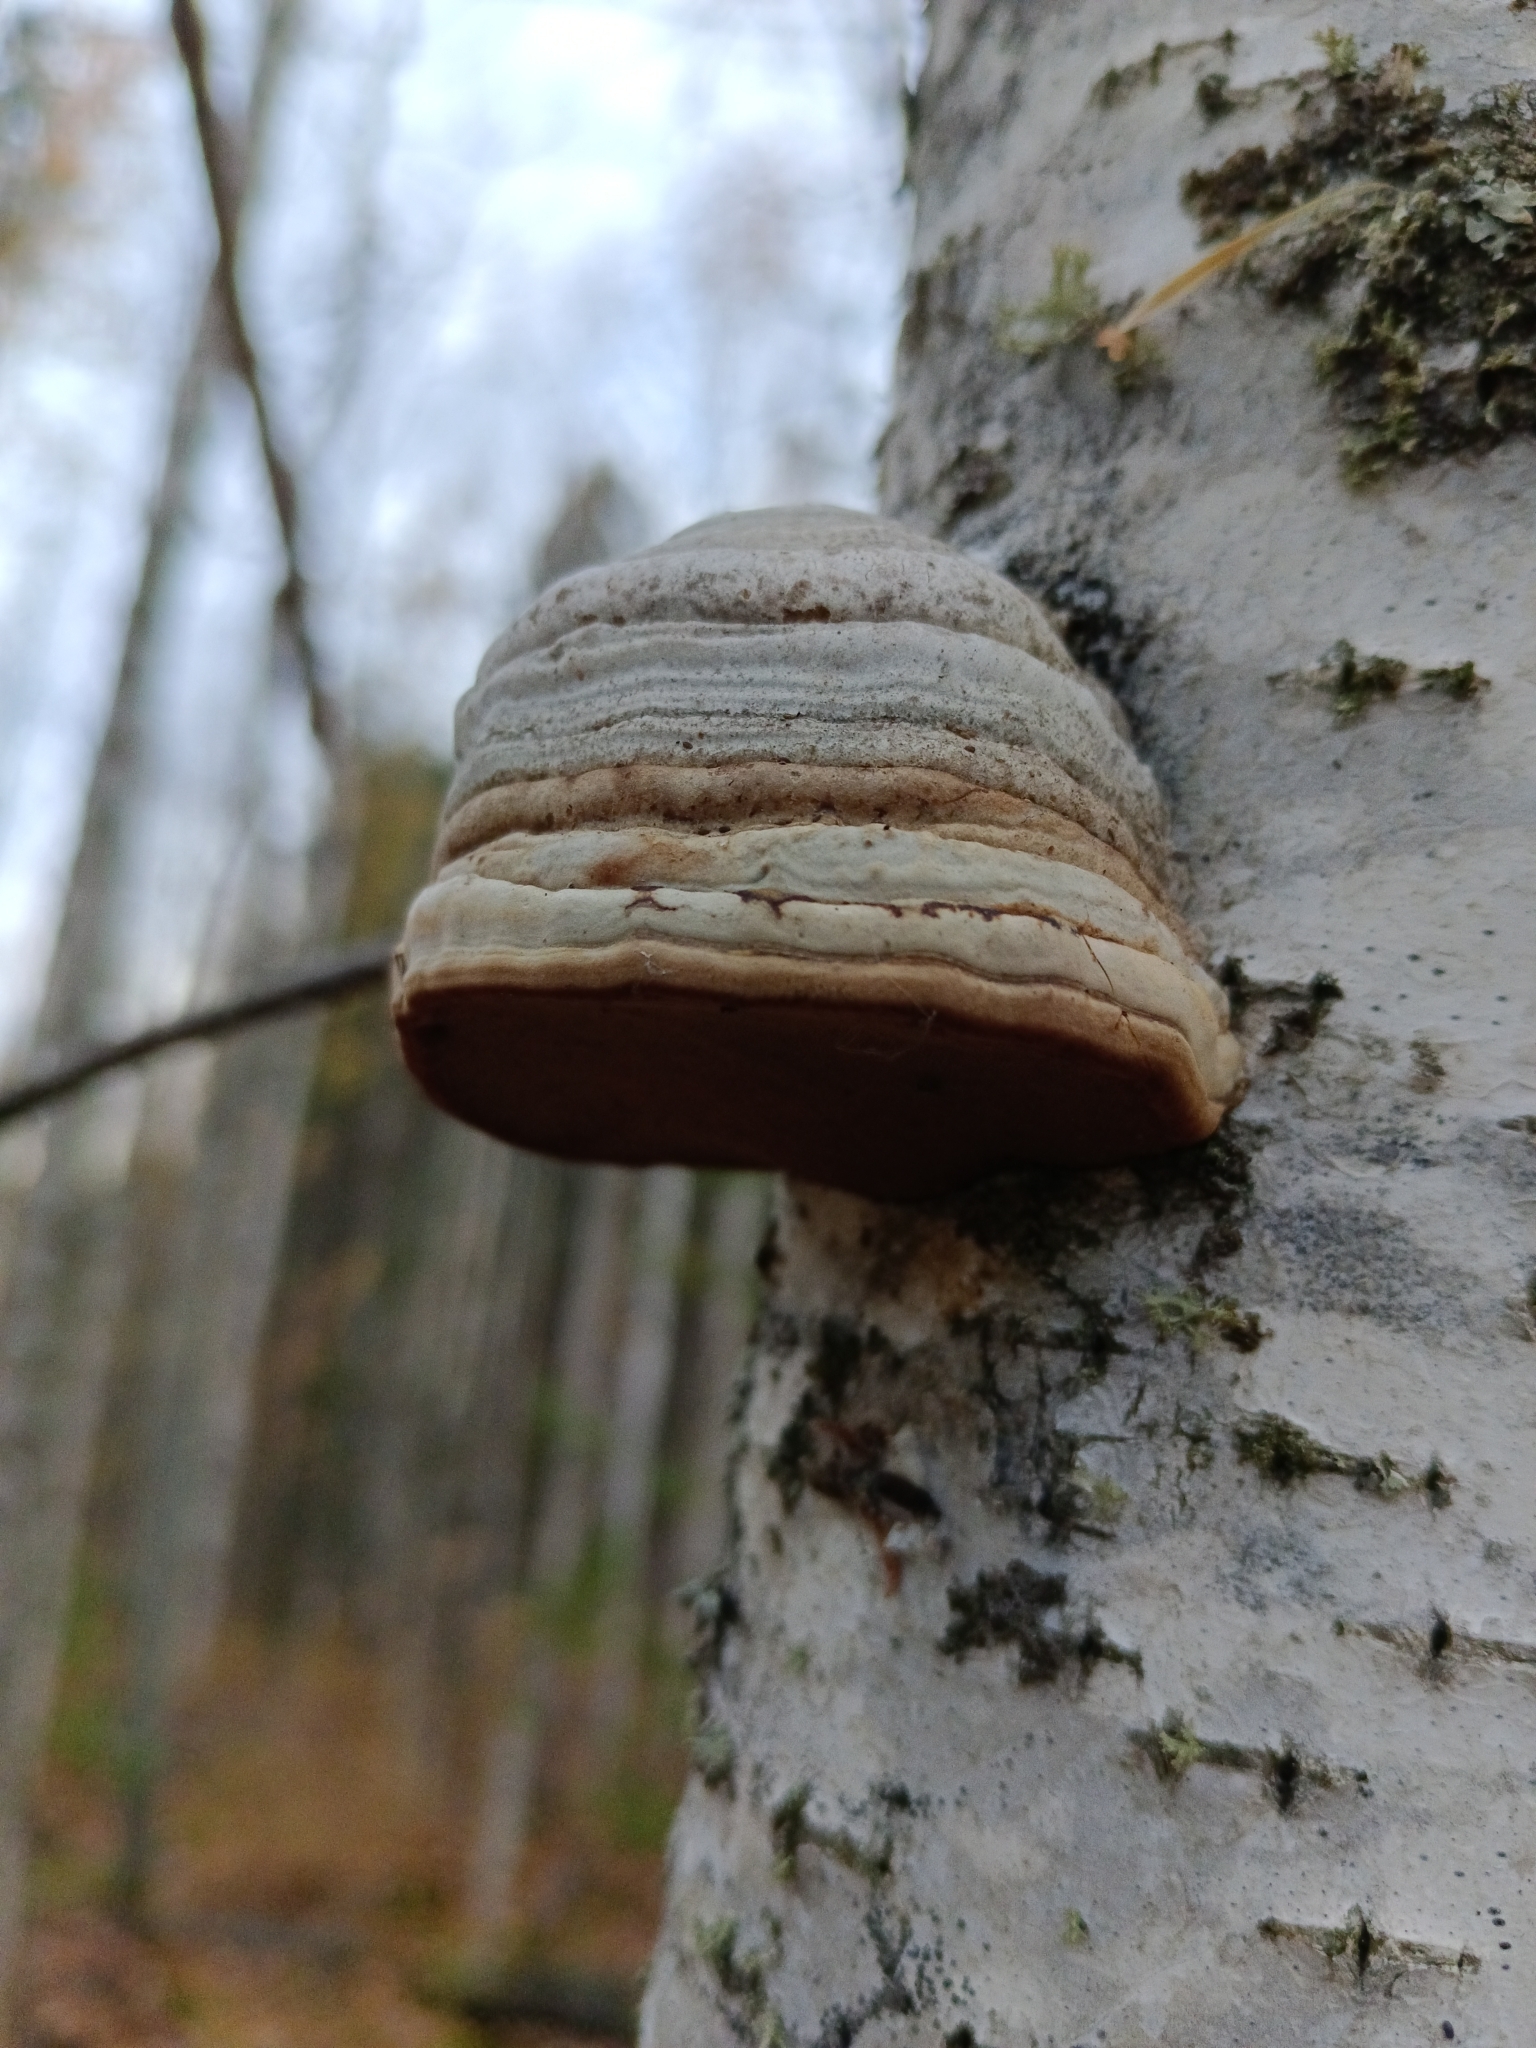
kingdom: Fungi
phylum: Basidiomycota
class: Agaricomycetes
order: Polyporales
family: Polyporaceae
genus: Fomes
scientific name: Fomes fomentarius
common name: Hoof fungus
